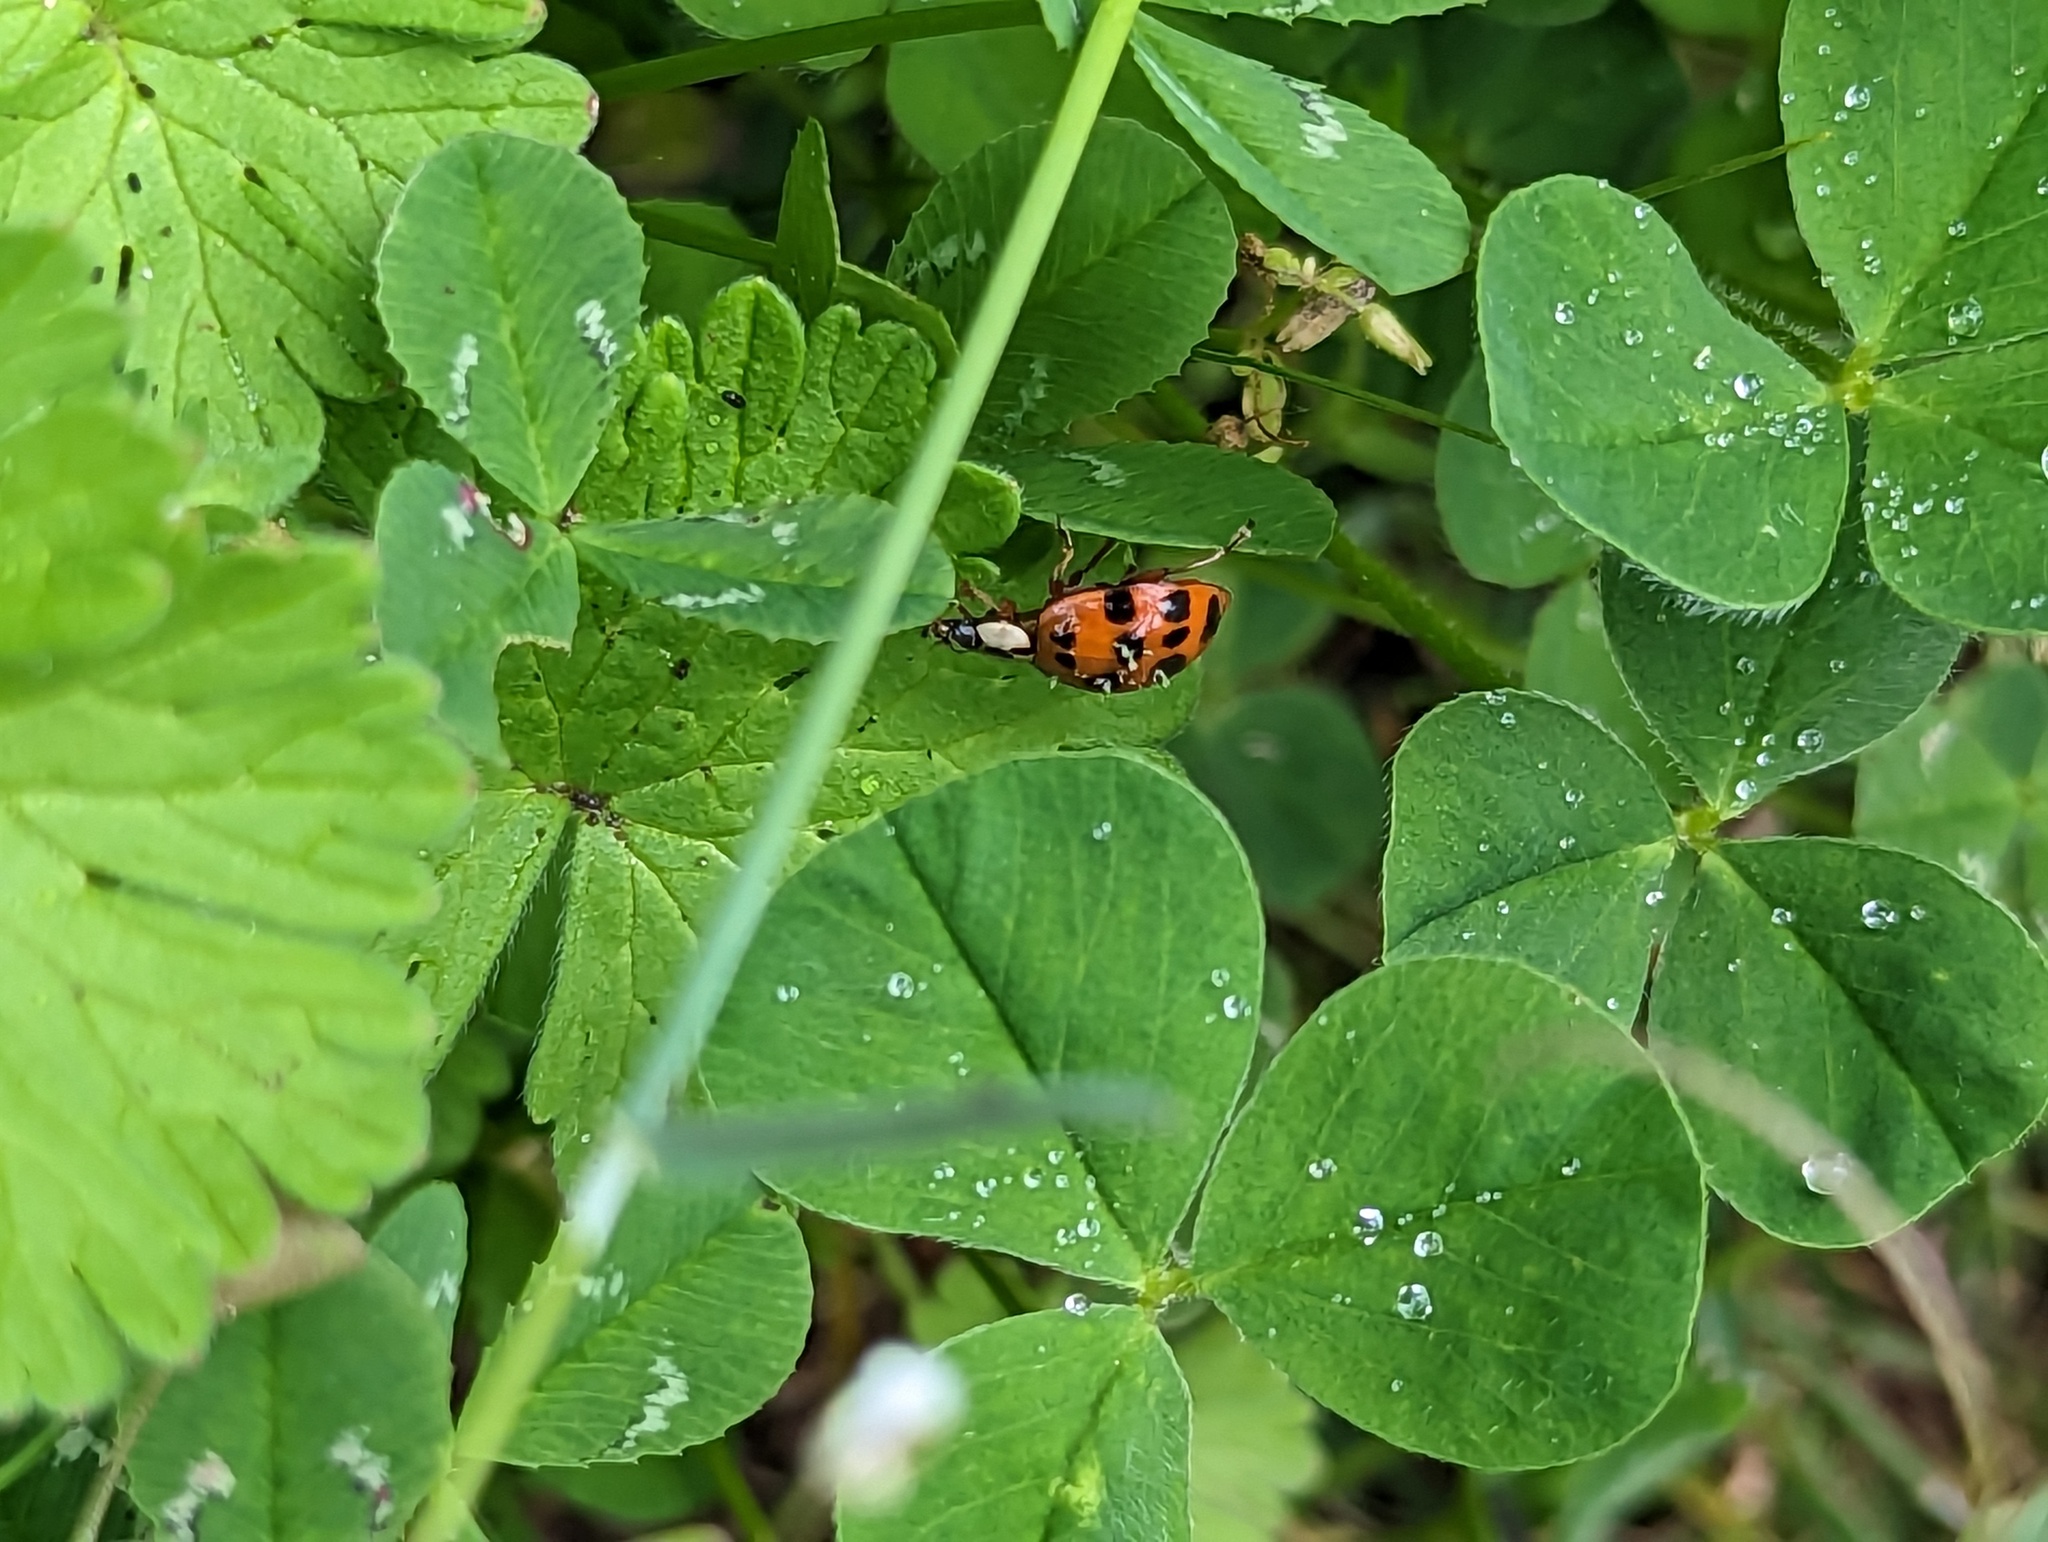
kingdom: Animalia
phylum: Arthropoda
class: Insecta
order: Coleoptera
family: Coccinellidae
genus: Harmonia
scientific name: Harmonia axyridis
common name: Harlequin ladybird
